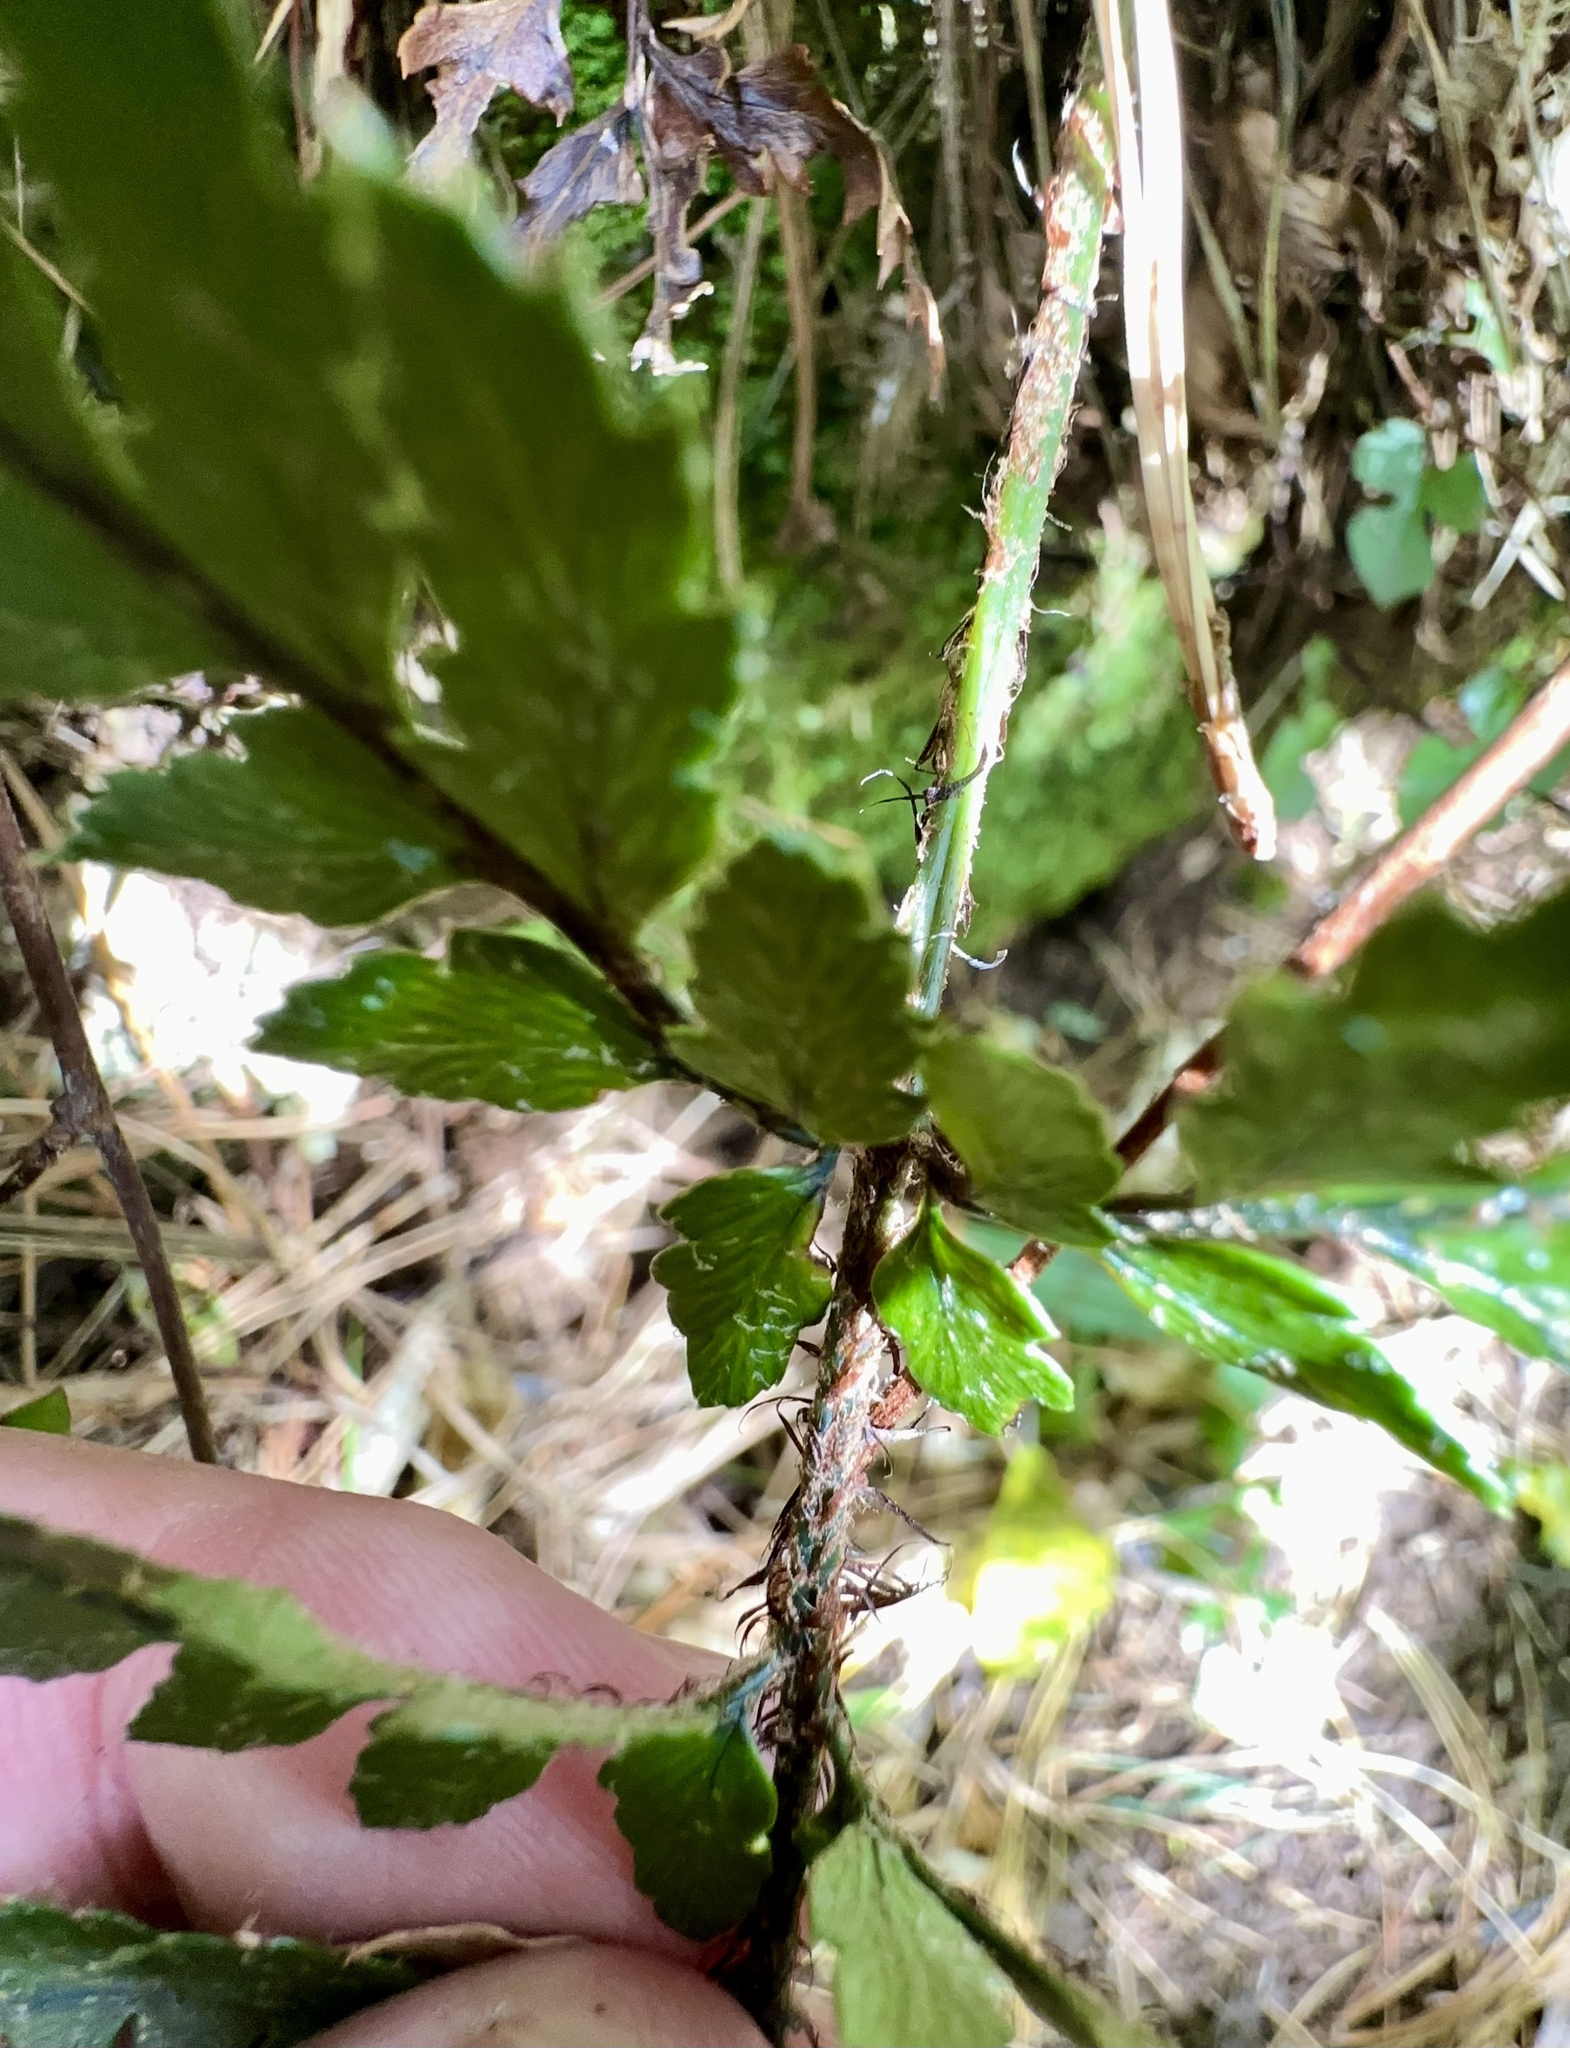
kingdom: Plantae
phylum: Tracheophyta
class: Polypodiopsida
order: Polypodiales
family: Dryopteridaceae
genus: Polystichum
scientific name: Polystichum neozelandicum
